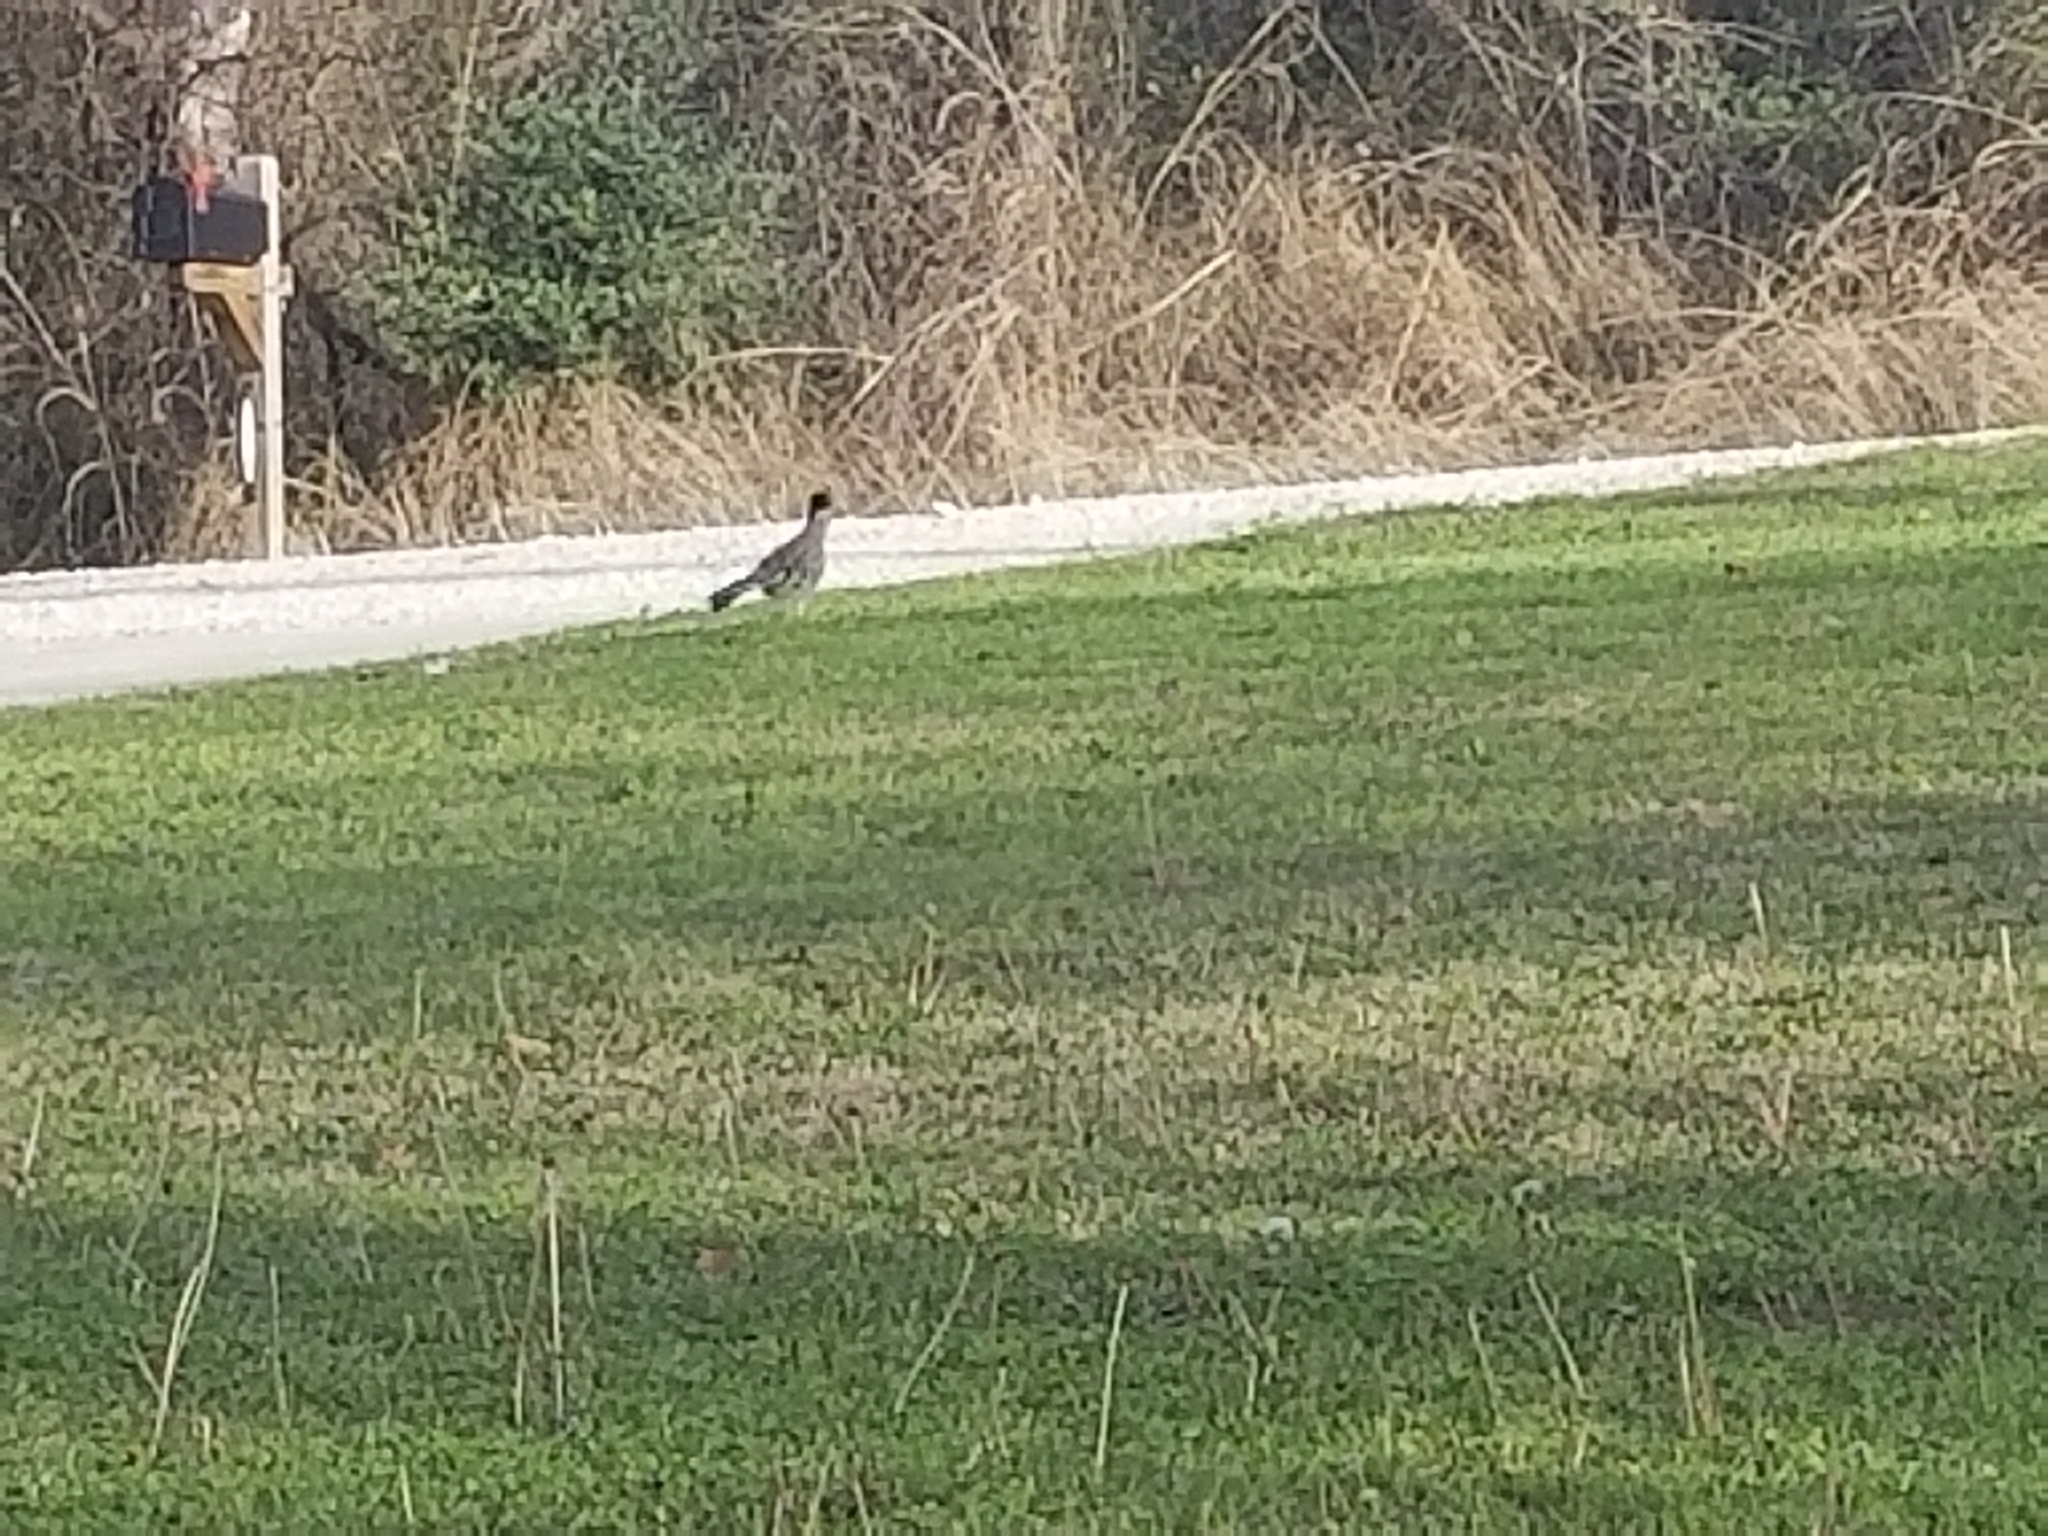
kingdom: Animalia
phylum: Chordata
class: Aves
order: Cuculiformes
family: Cuculidae
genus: Geococcyx
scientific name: Geococcyx californianus
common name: Greater roadrunner
